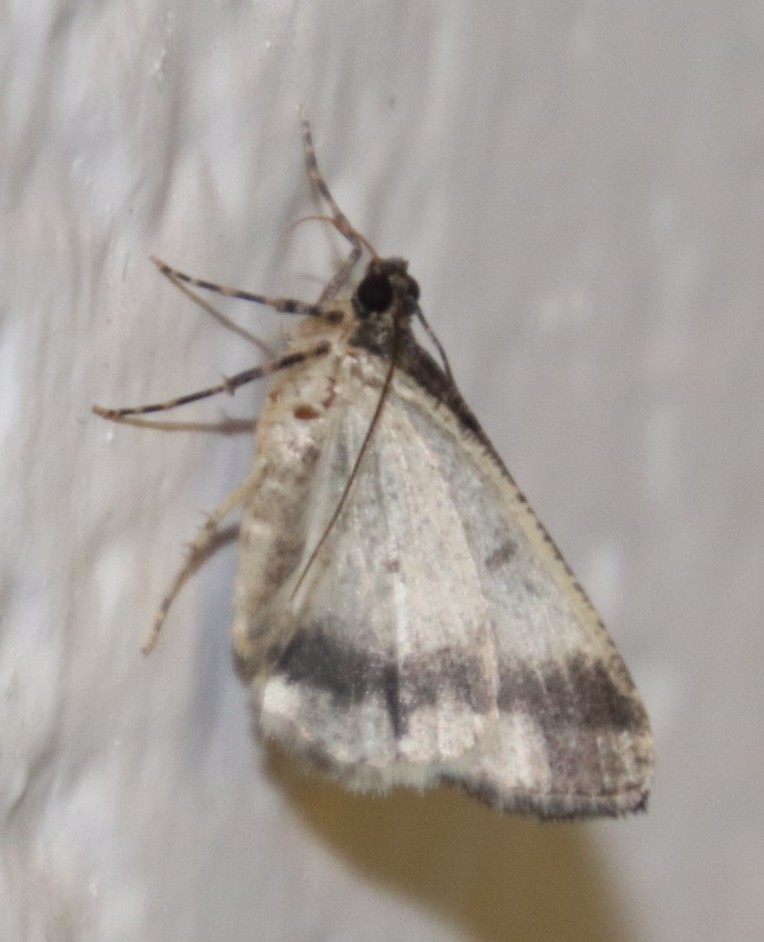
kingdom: Animalia
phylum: Arthropoda
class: Insecta
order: Lepidoptera
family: Geometridae
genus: Xylopteryx
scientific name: Xylopteryx arcuata
